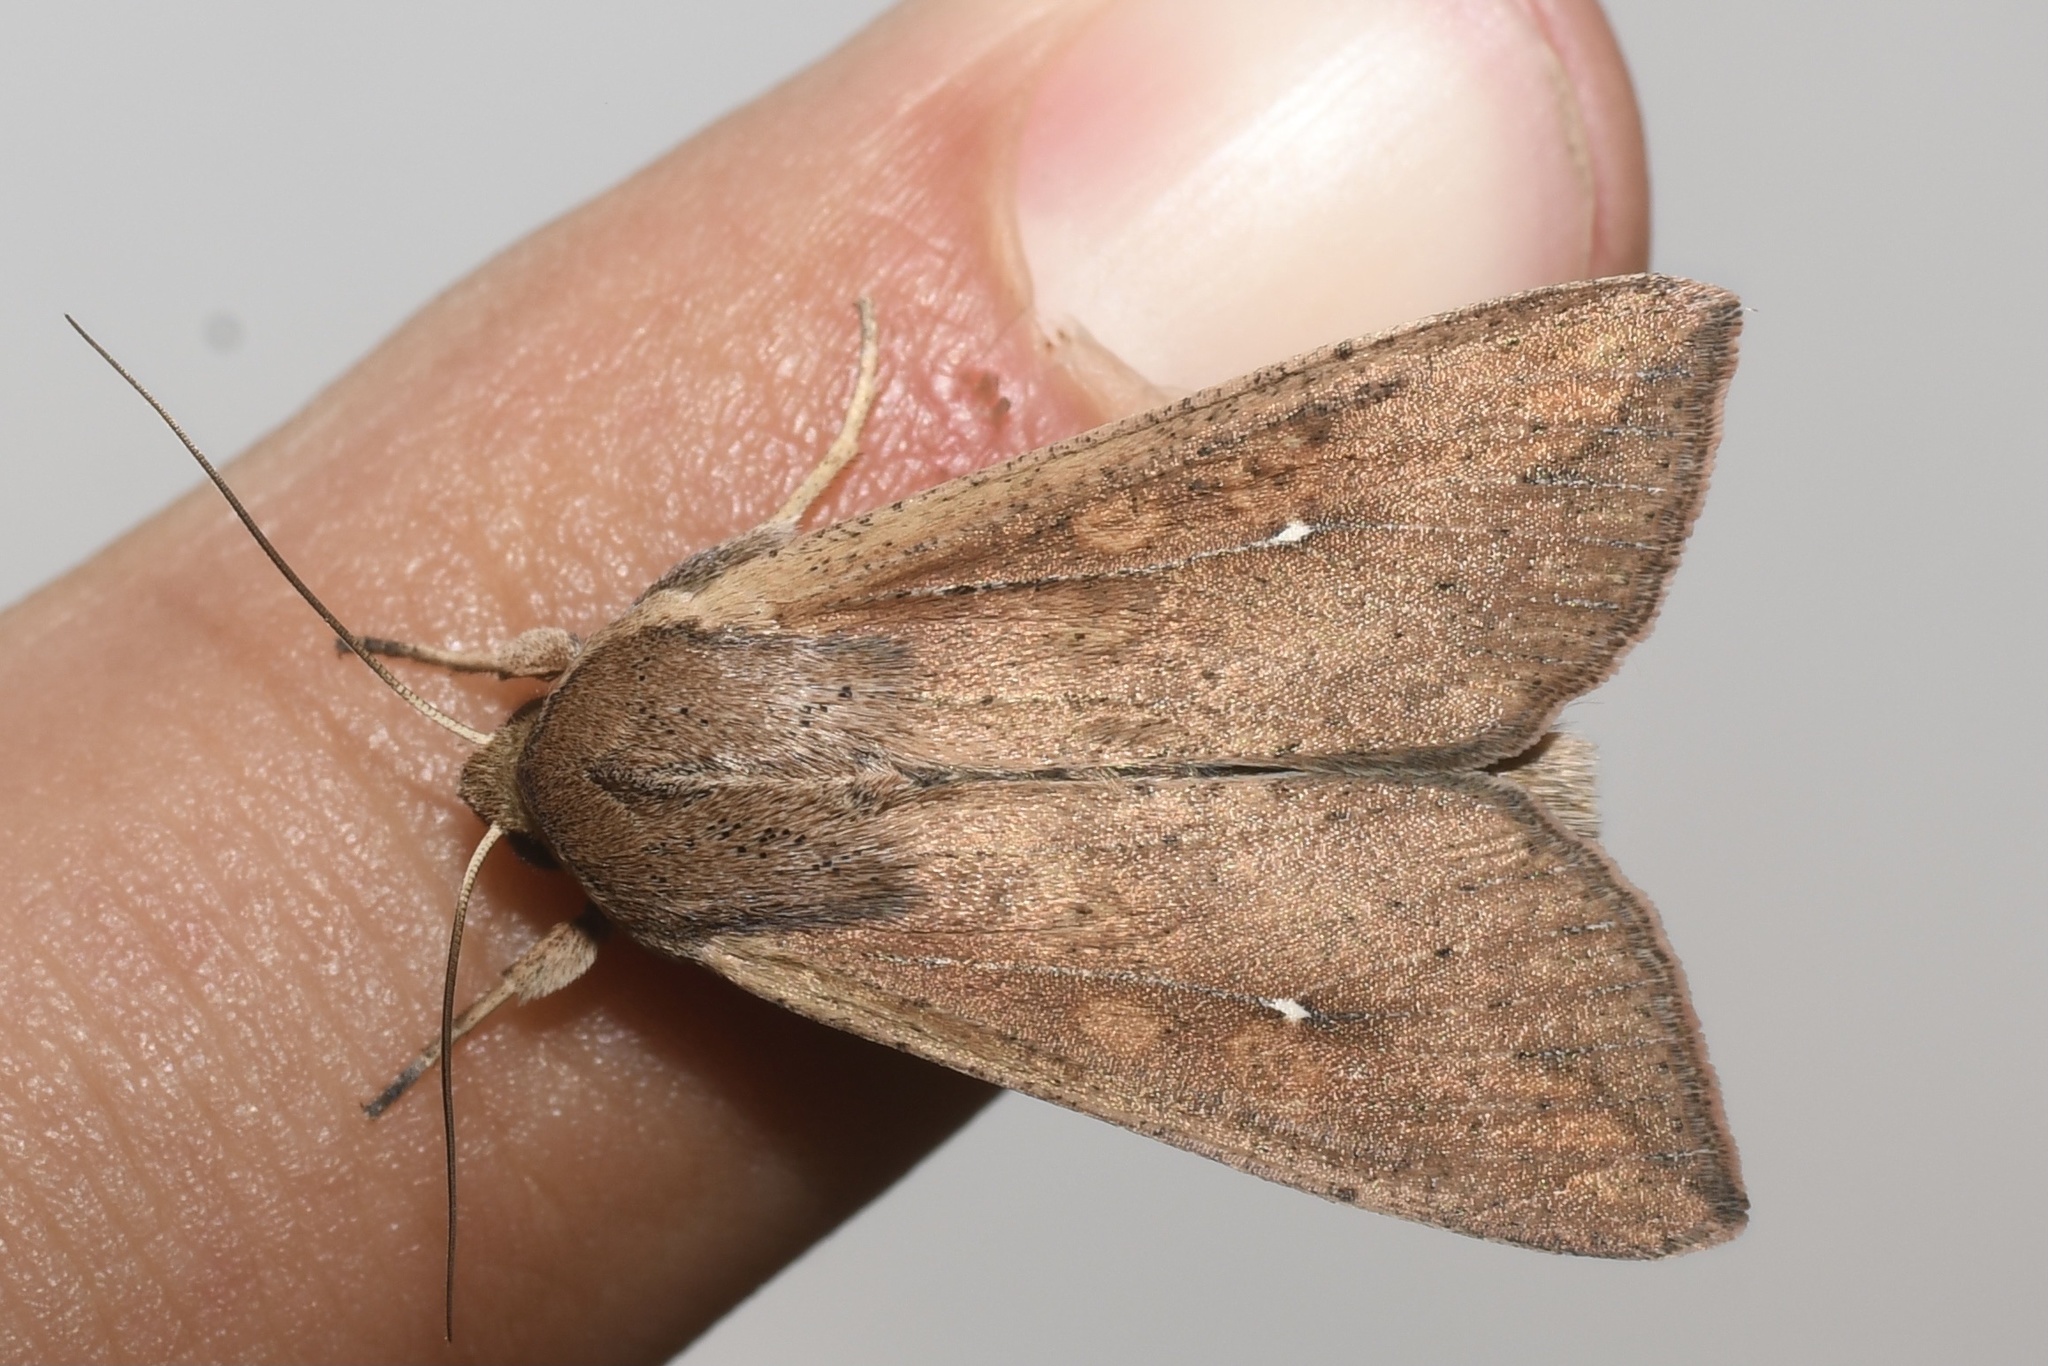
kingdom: Animalia
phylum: Arthropoda
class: Insecta
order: Lepidoptera
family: Noctuidae
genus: Mythimna
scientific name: Mythimna unipuncta
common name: White-speck
